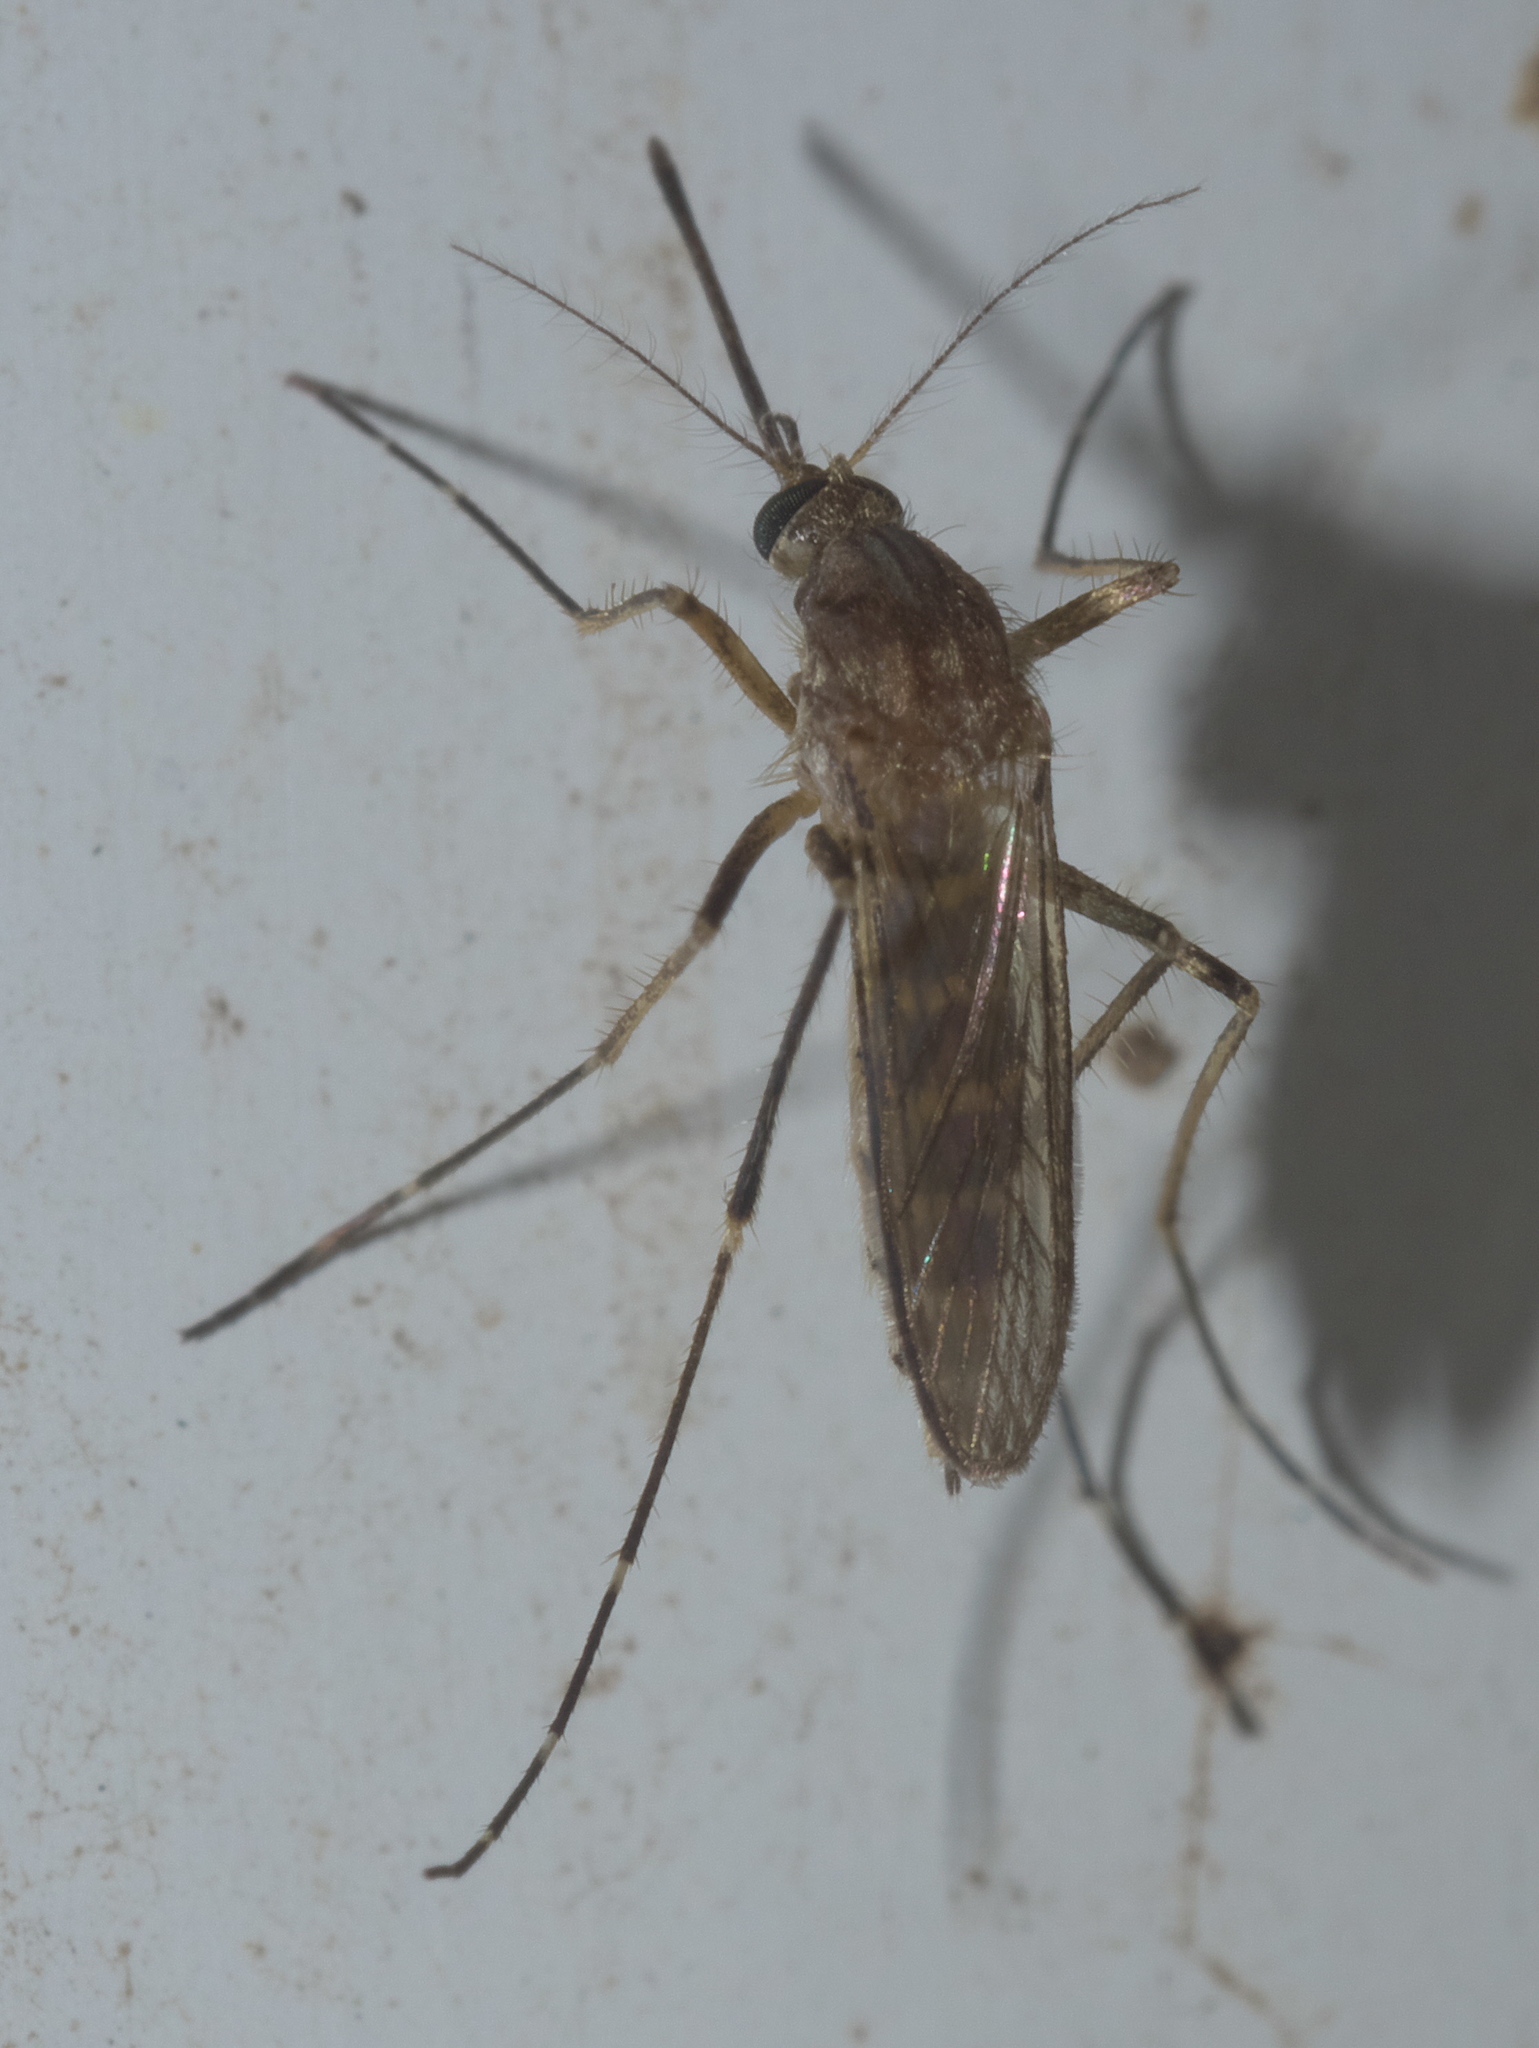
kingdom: Animalia
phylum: Arthropoda
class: Insecta
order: Diptera
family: Culicidae
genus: Aedes
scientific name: Aedes vexans
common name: Inland floodwater mosquito
